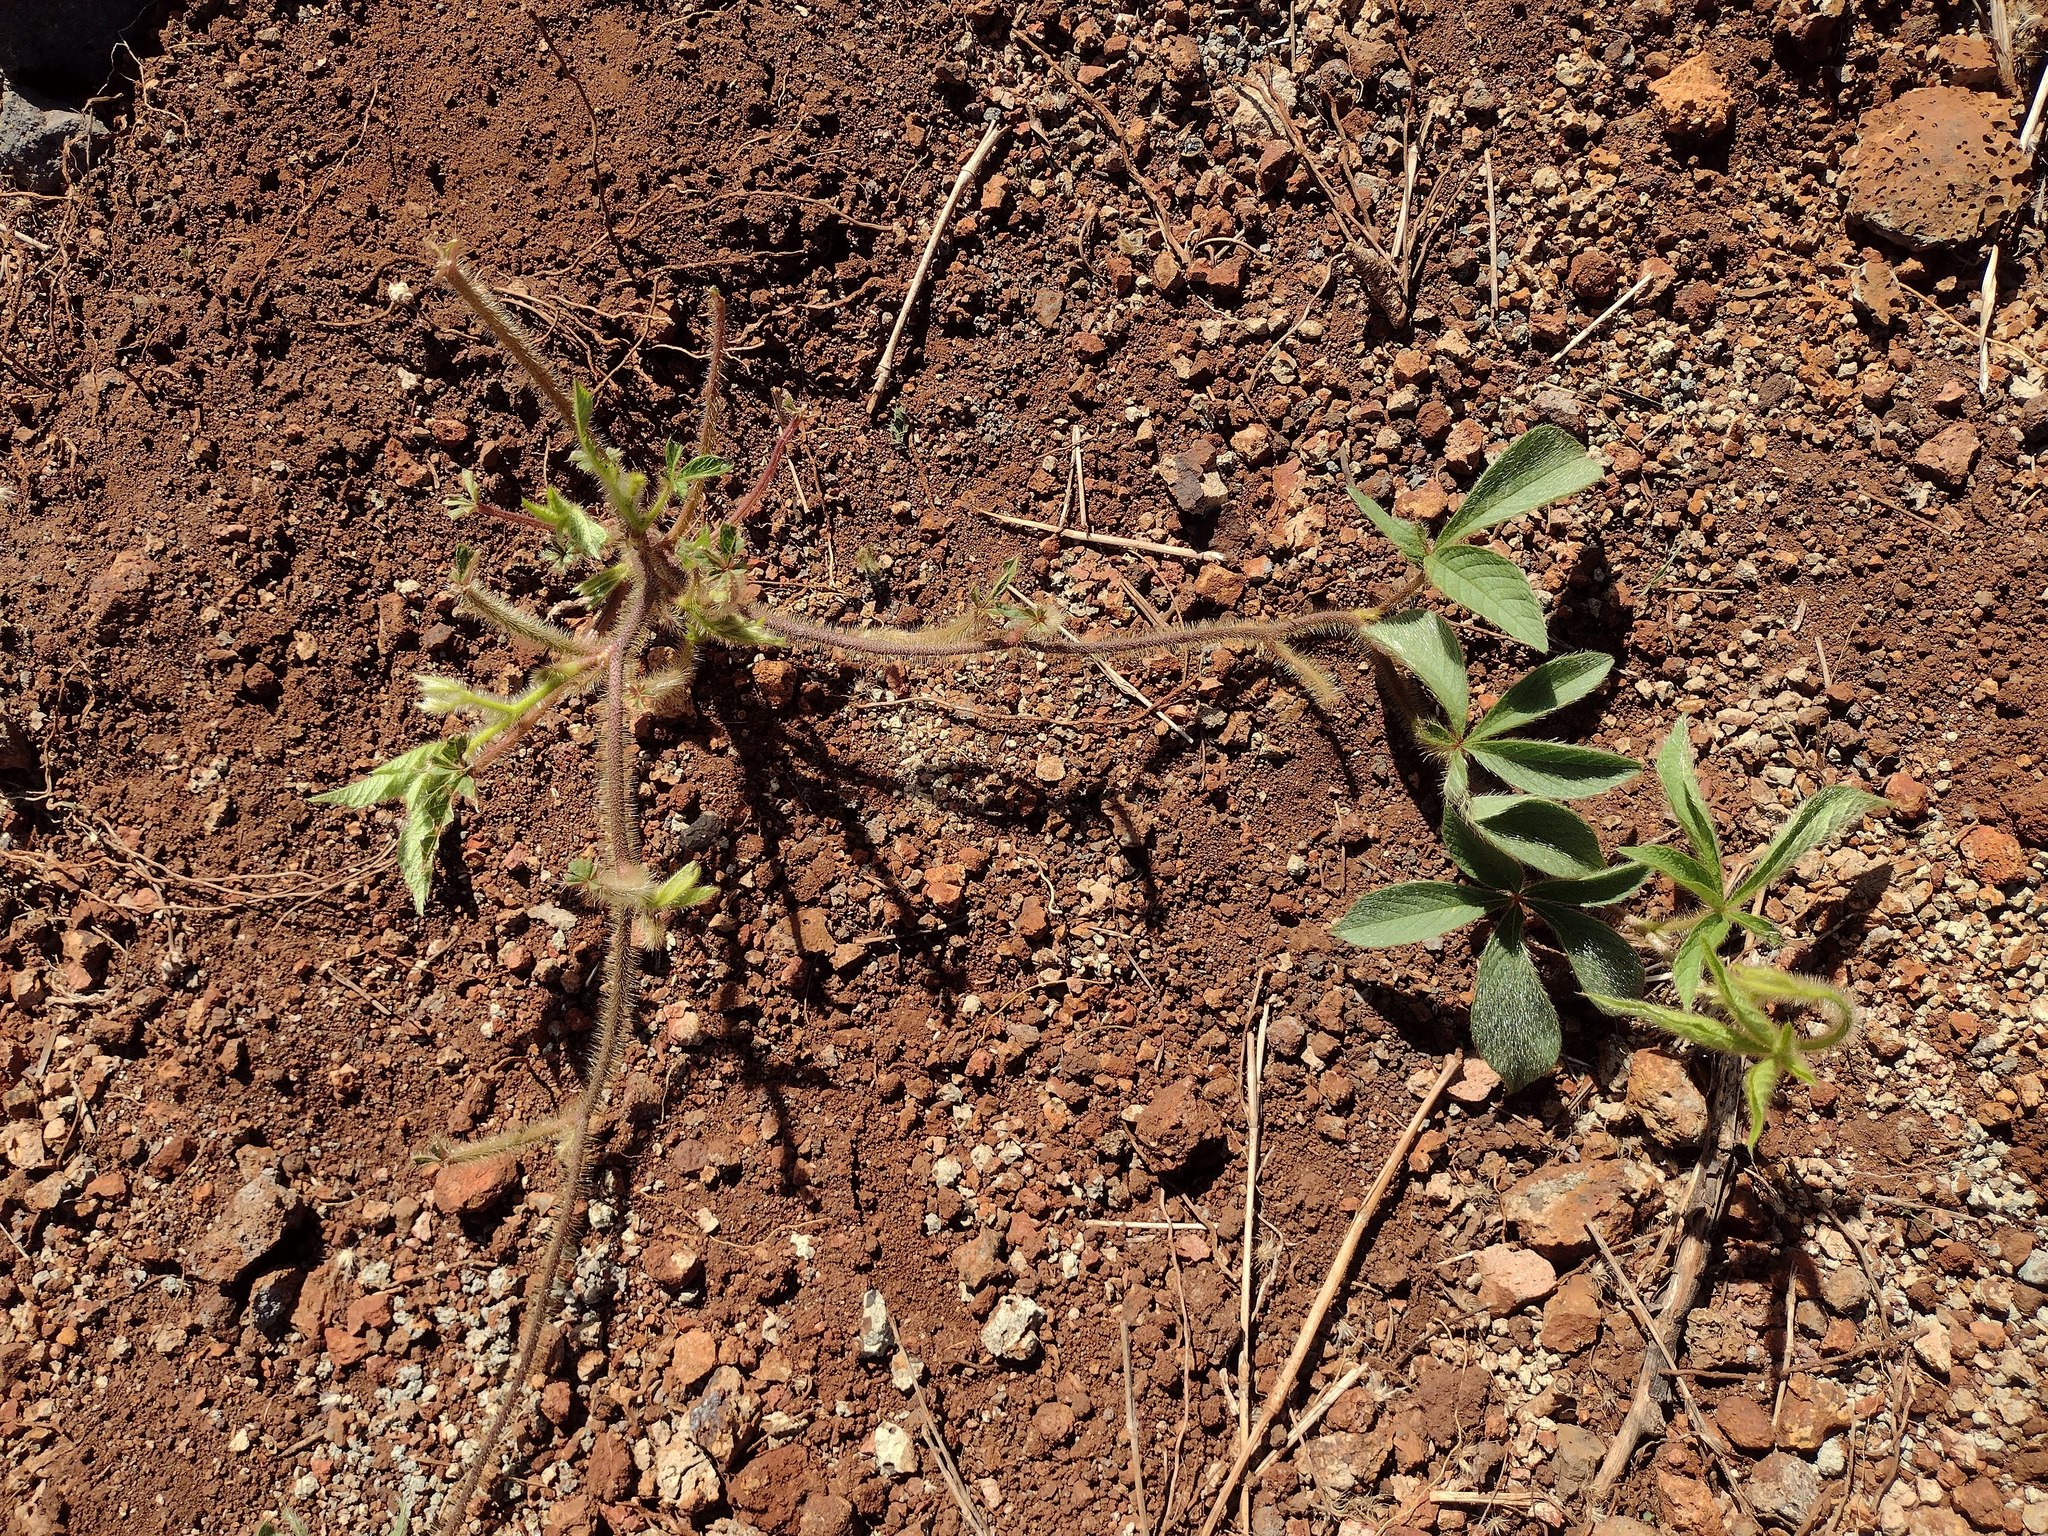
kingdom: Plantae
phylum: Tracheophyta
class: Magnoliopsida
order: Solanales
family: Convolvulaceae
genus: Distimake
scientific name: Distimake aegyptius
